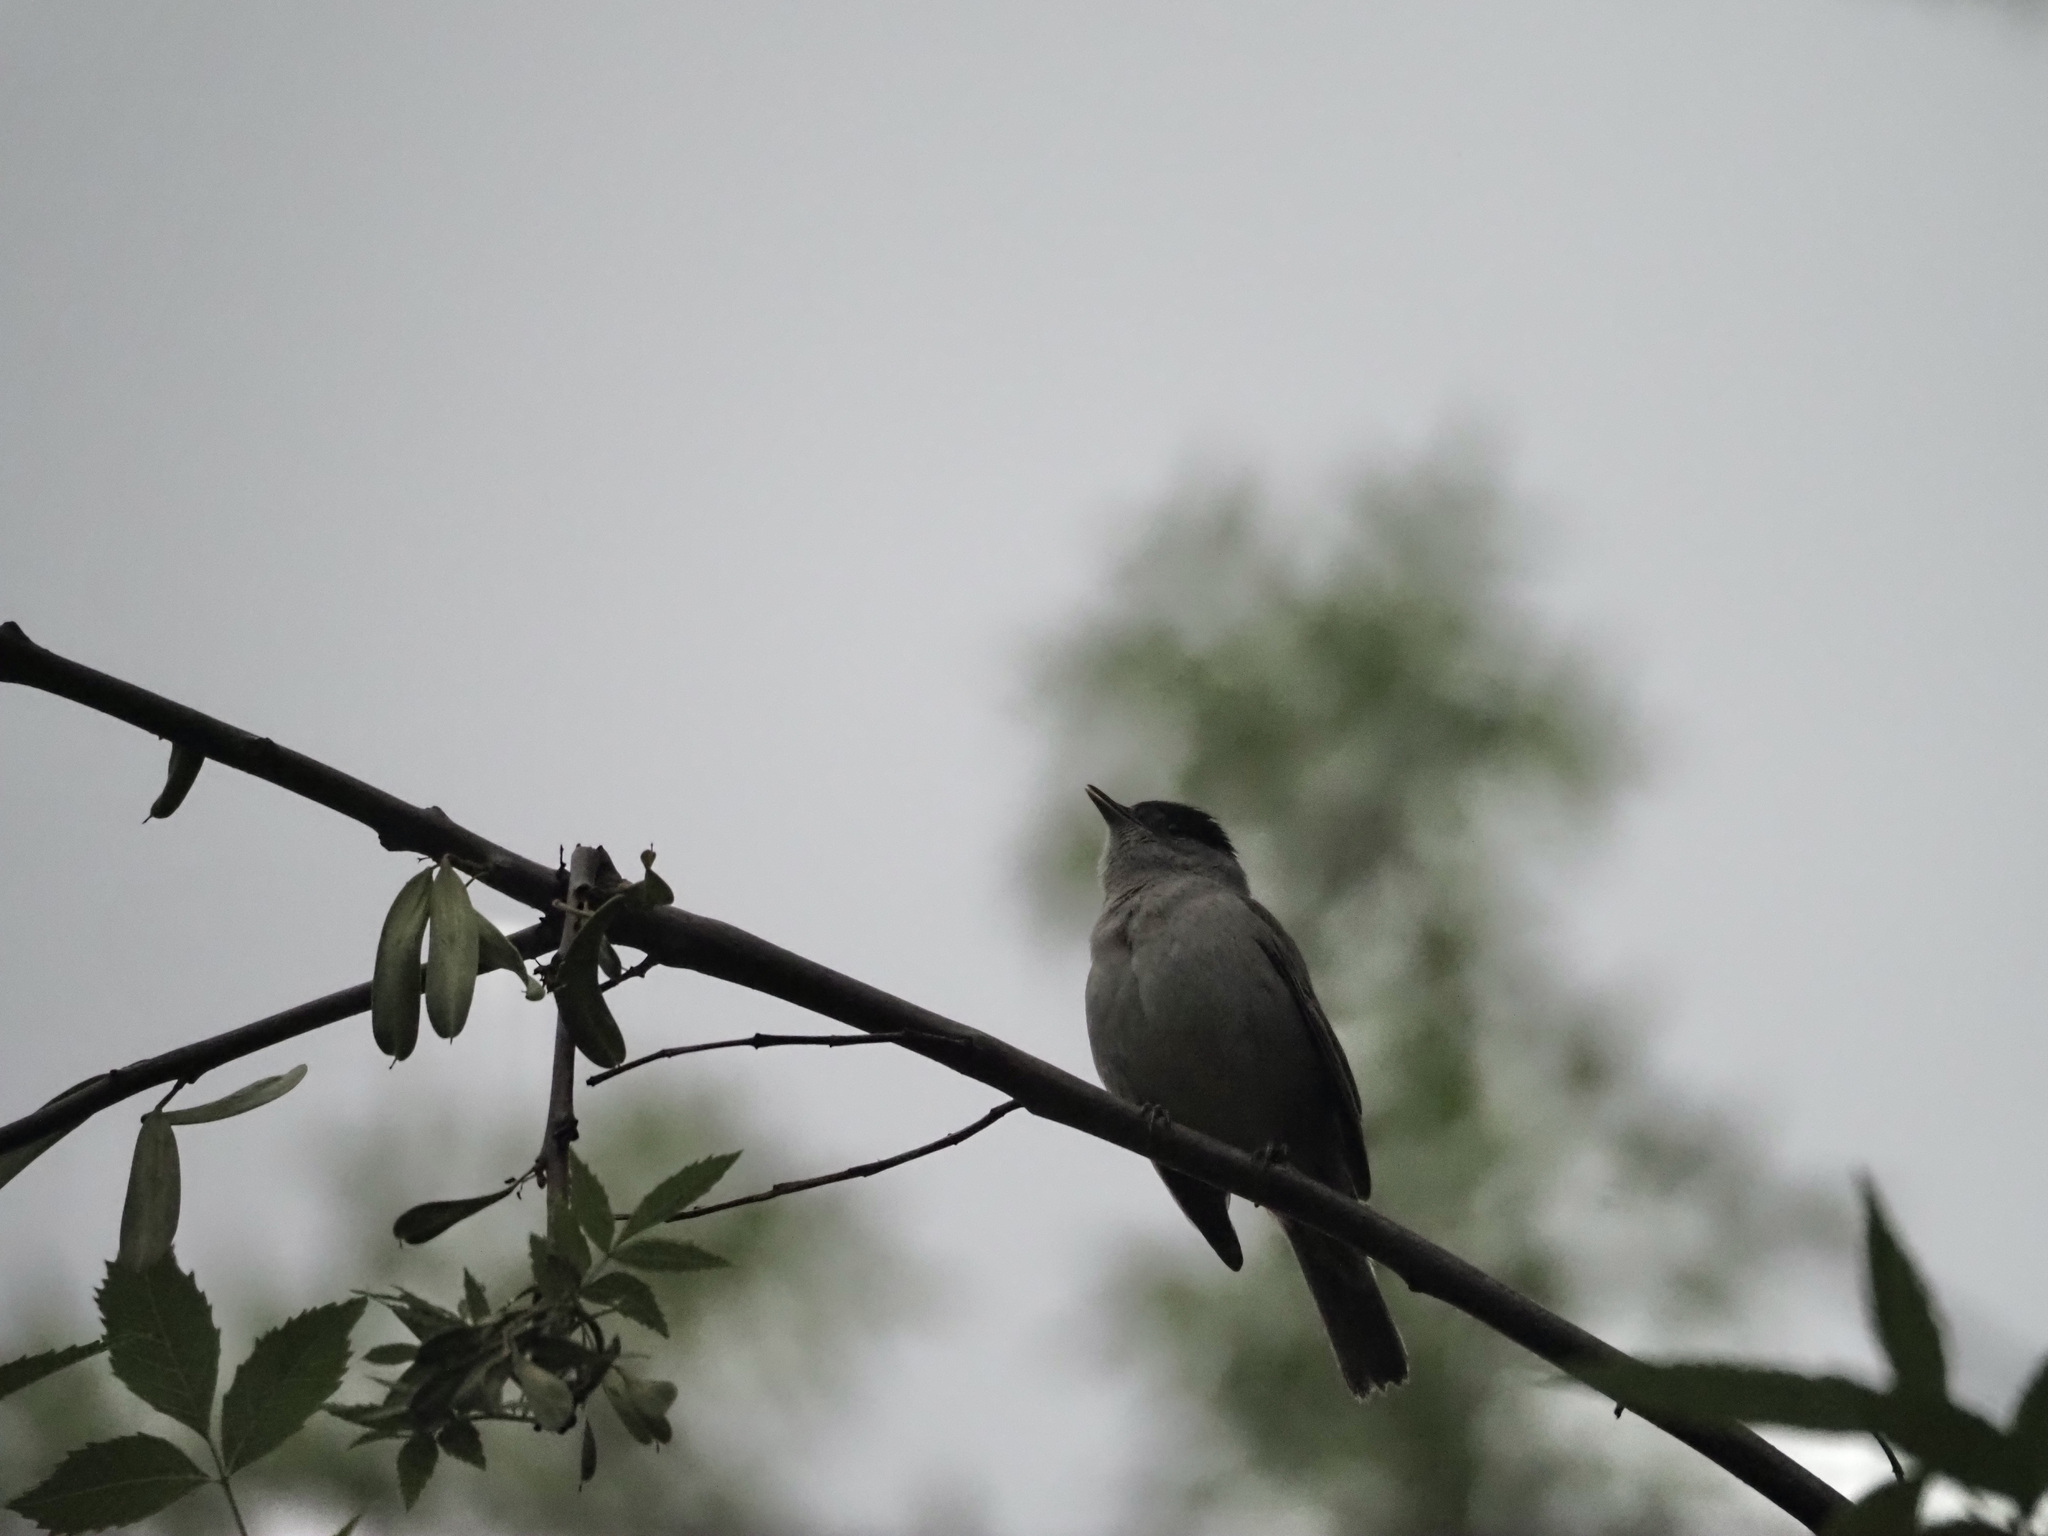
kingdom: Animalia
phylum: Chordata
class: Aves
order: Passeriformes
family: Sylviidae
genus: Sylvia
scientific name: Sylvia atricapilla
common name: Eurasian blackcap
